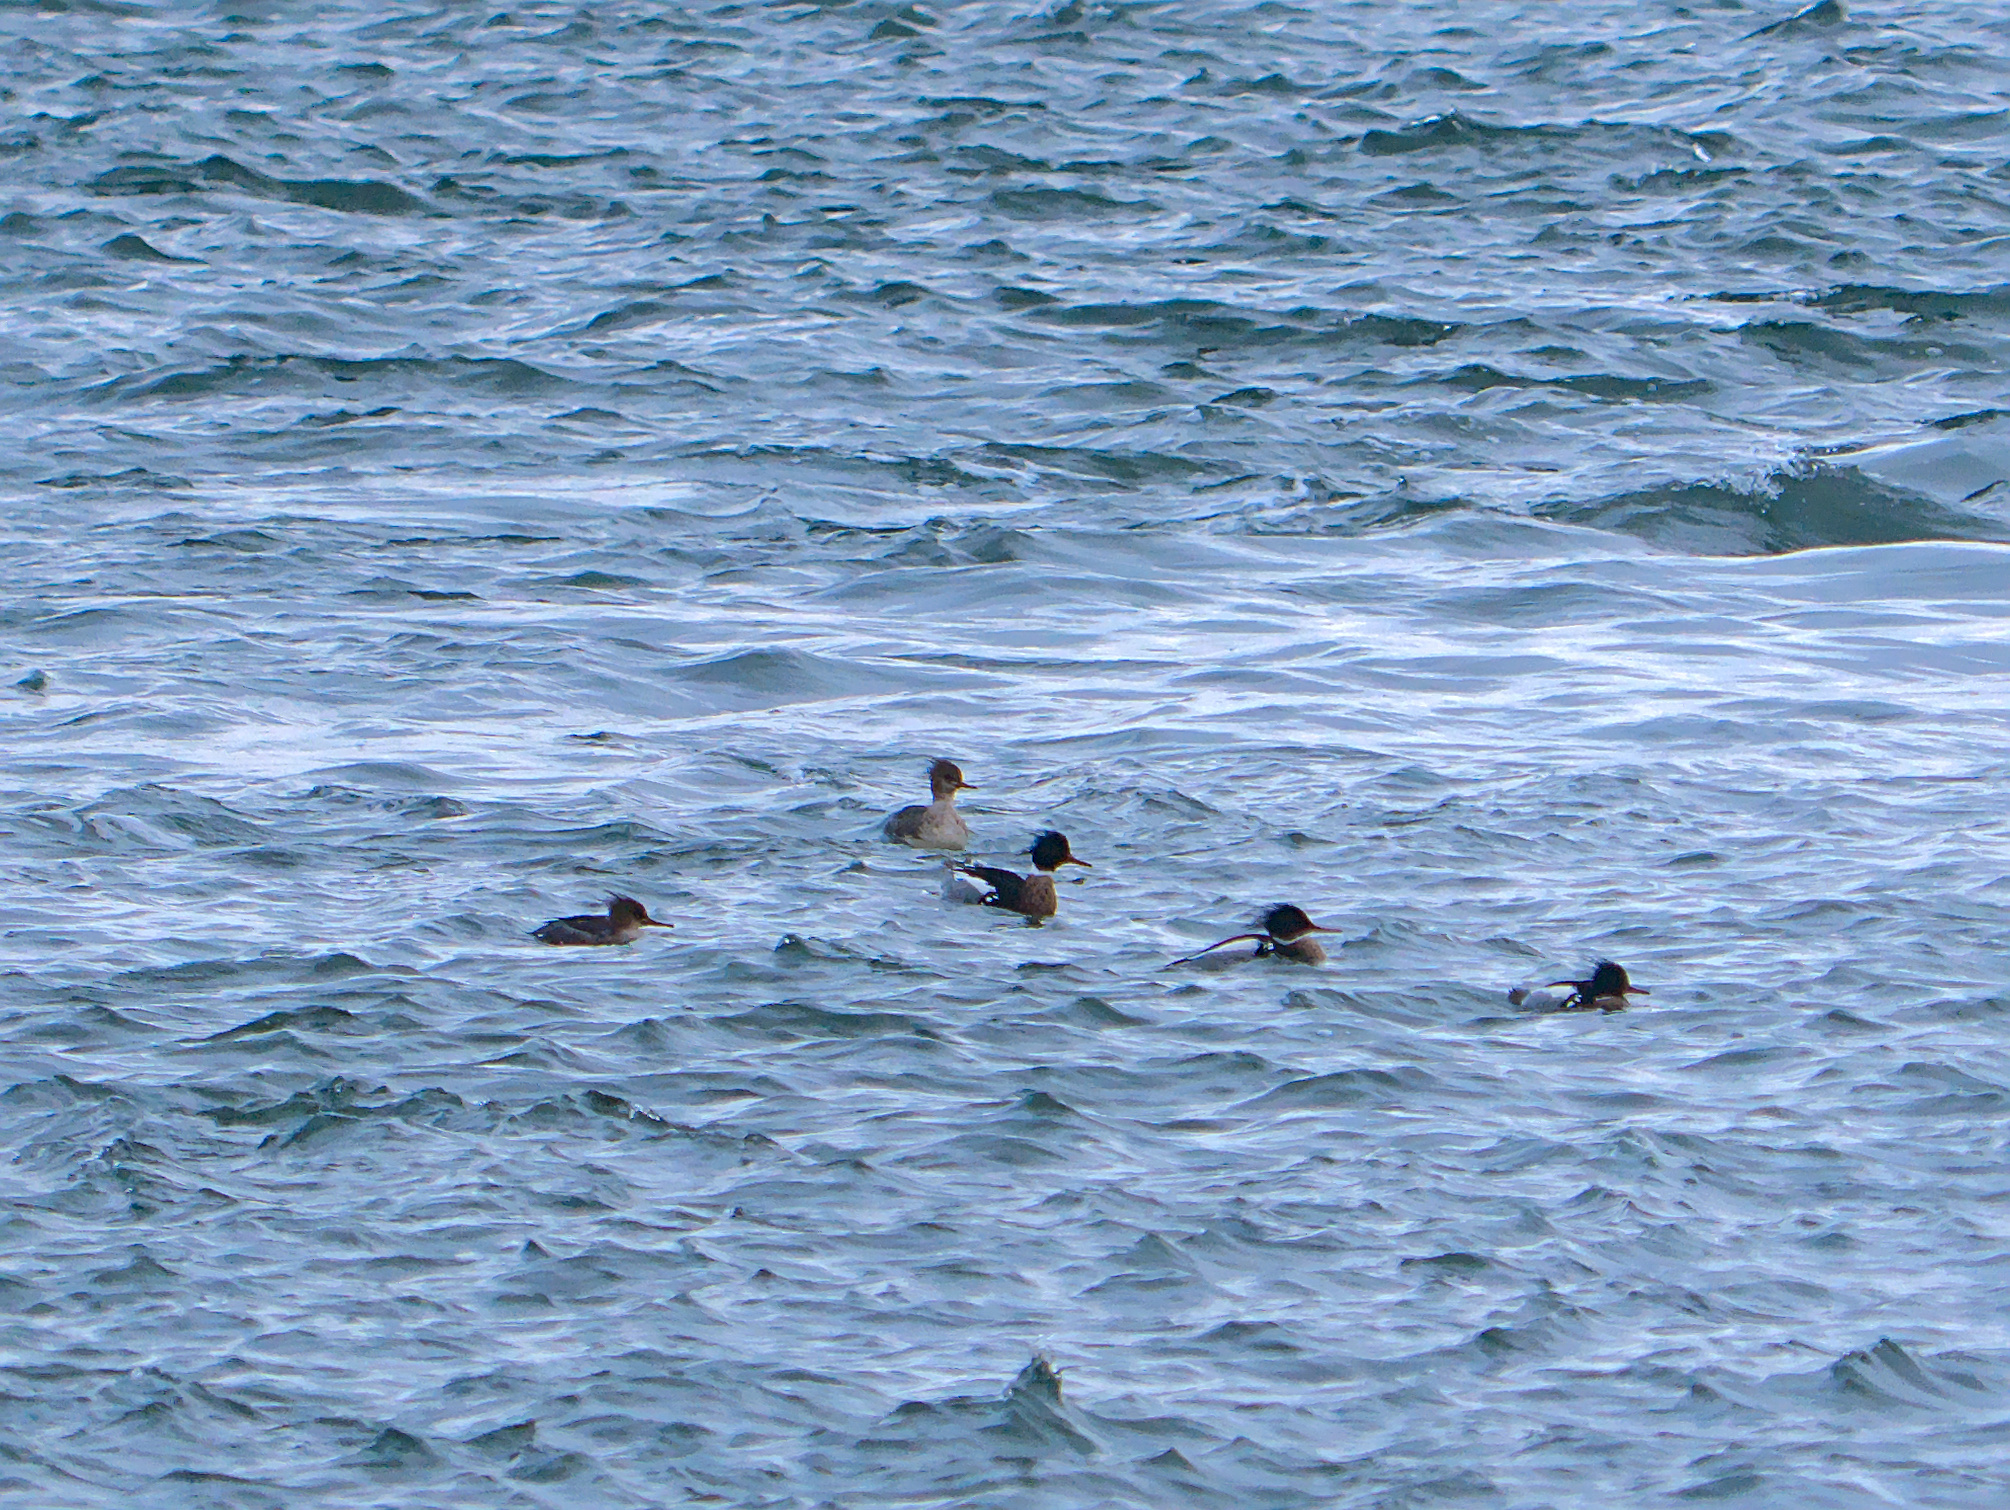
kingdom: Animalia
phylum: Chordata
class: Aves
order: Anseriformes
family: Anatidae
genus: Mergus
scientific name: Mergus serrator
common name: Red-breasted merganser
